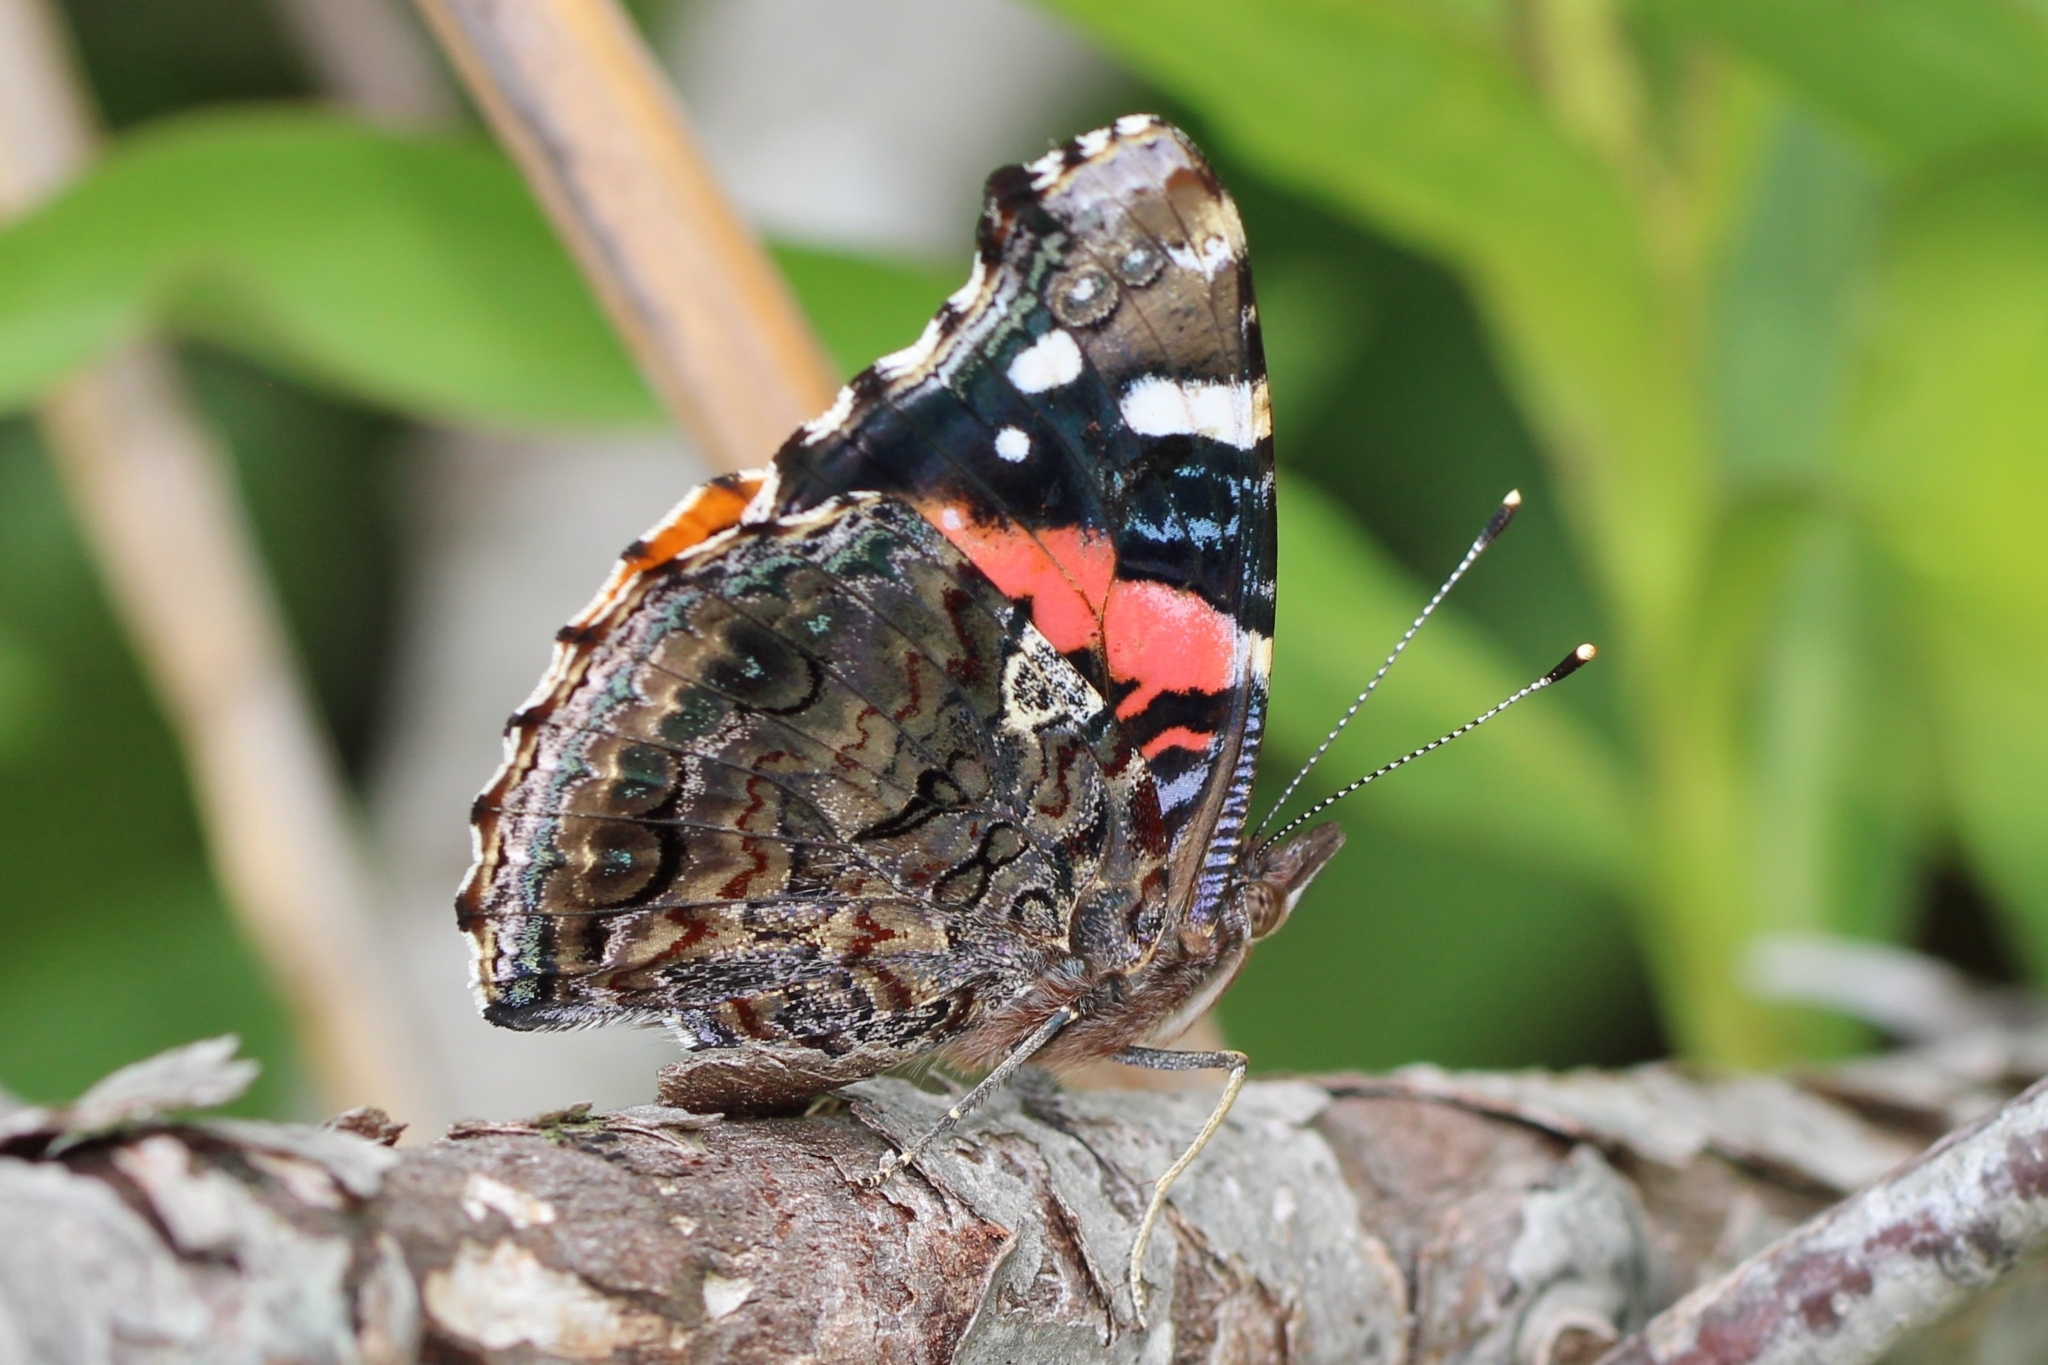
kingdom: Animalia
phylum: Arthropoda
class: Insecta
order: Lepidoptera
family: Nymphalidae
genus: Vanessa
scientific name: Vanessa atalanta
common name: Red admiral
